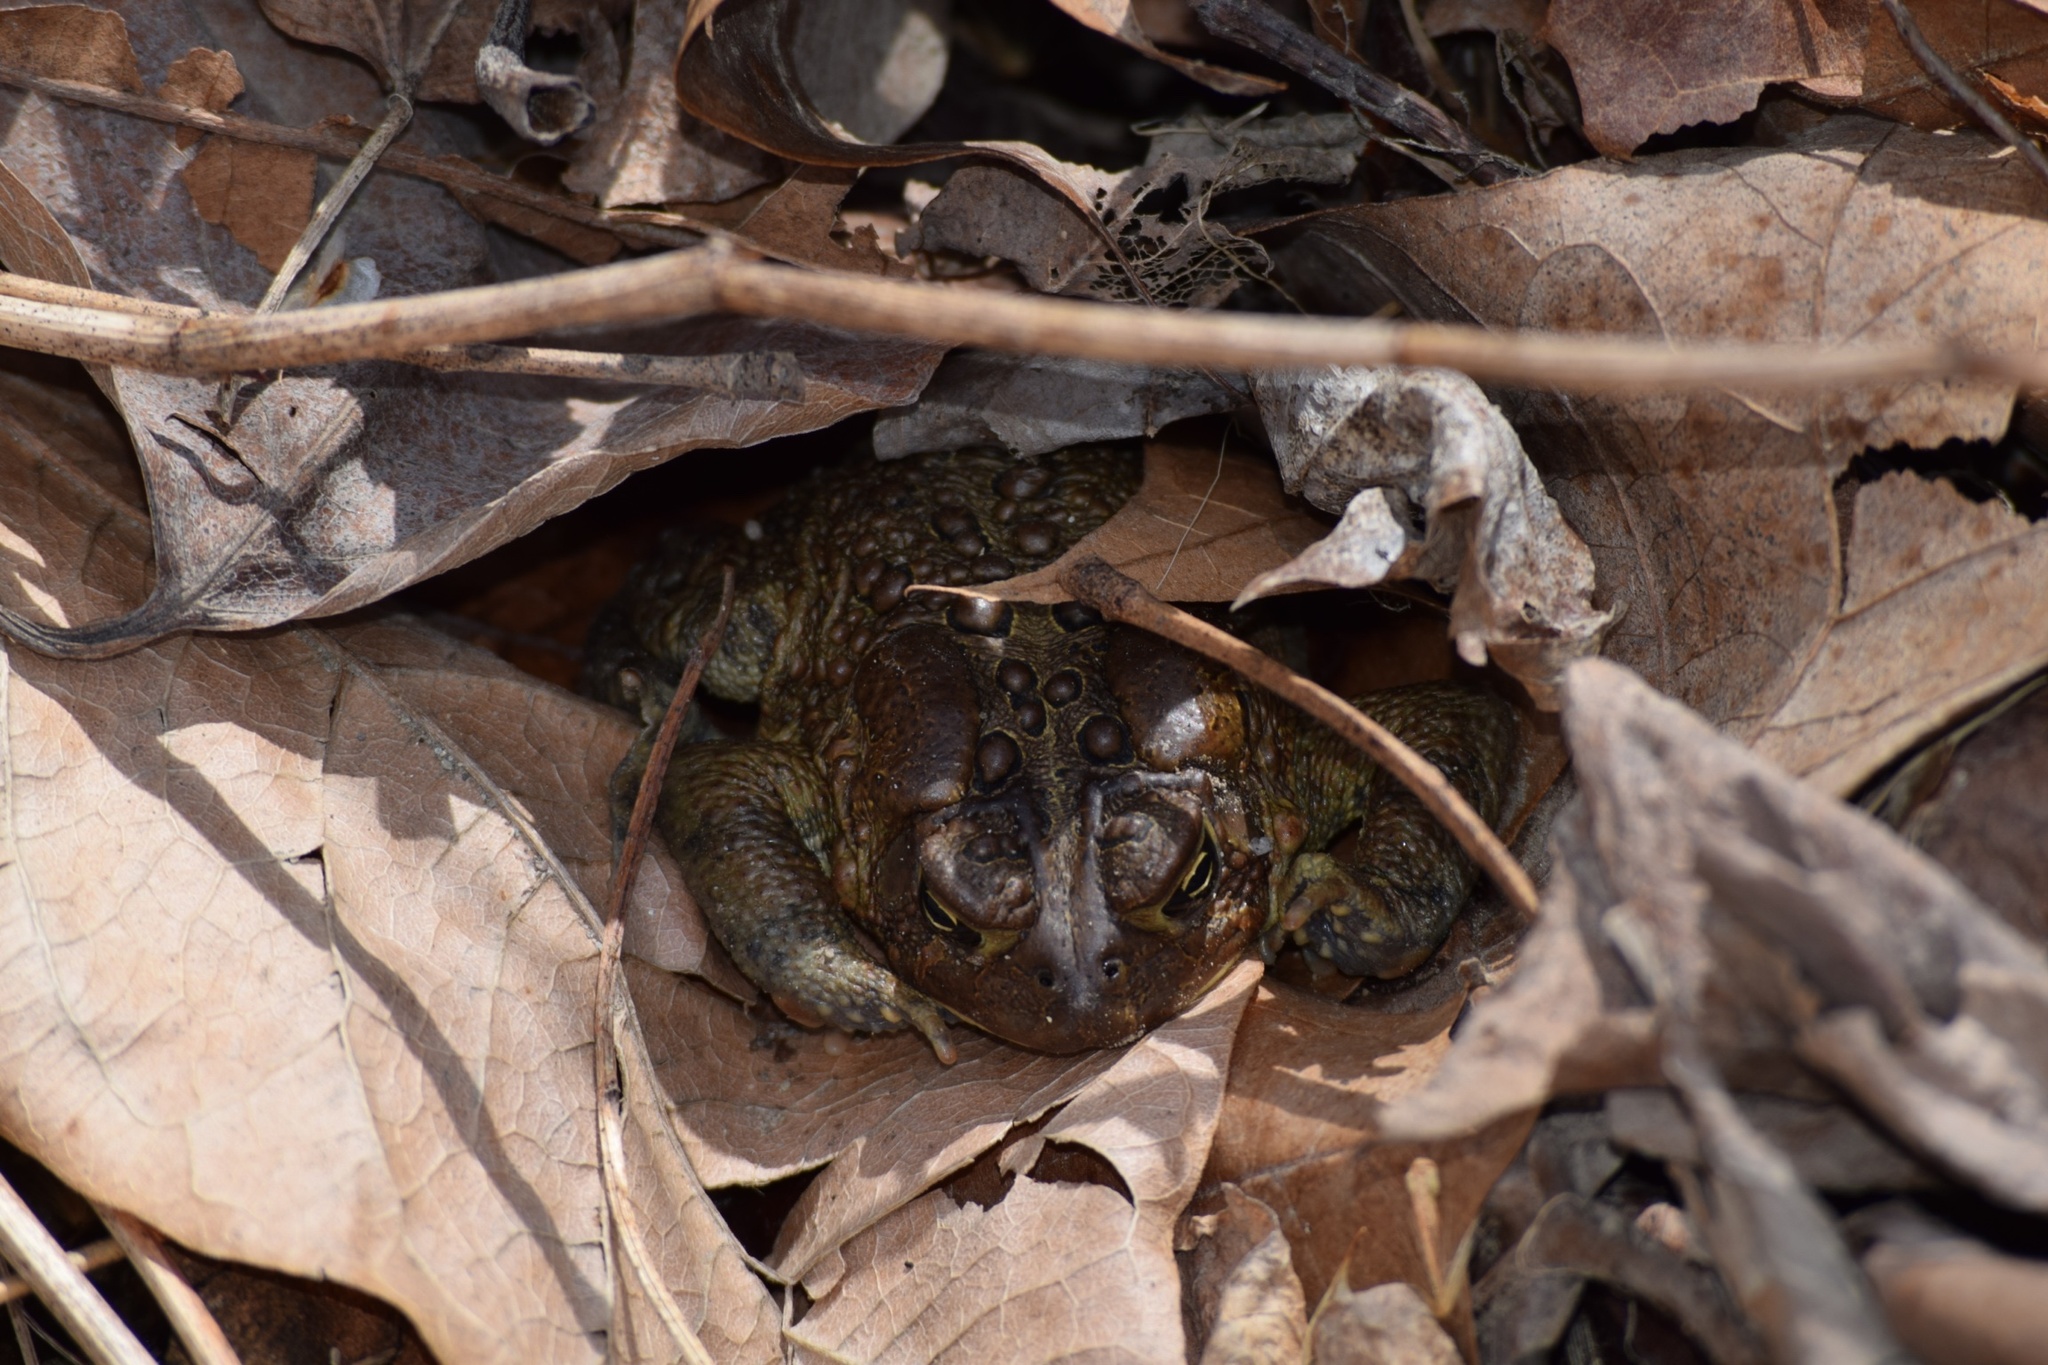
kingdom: Animalia
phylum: Chordata
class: Amphibia
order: Anura
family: Bufonidae
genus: Anaxyrus
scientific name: Anaxyrus americanus
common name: American toad
